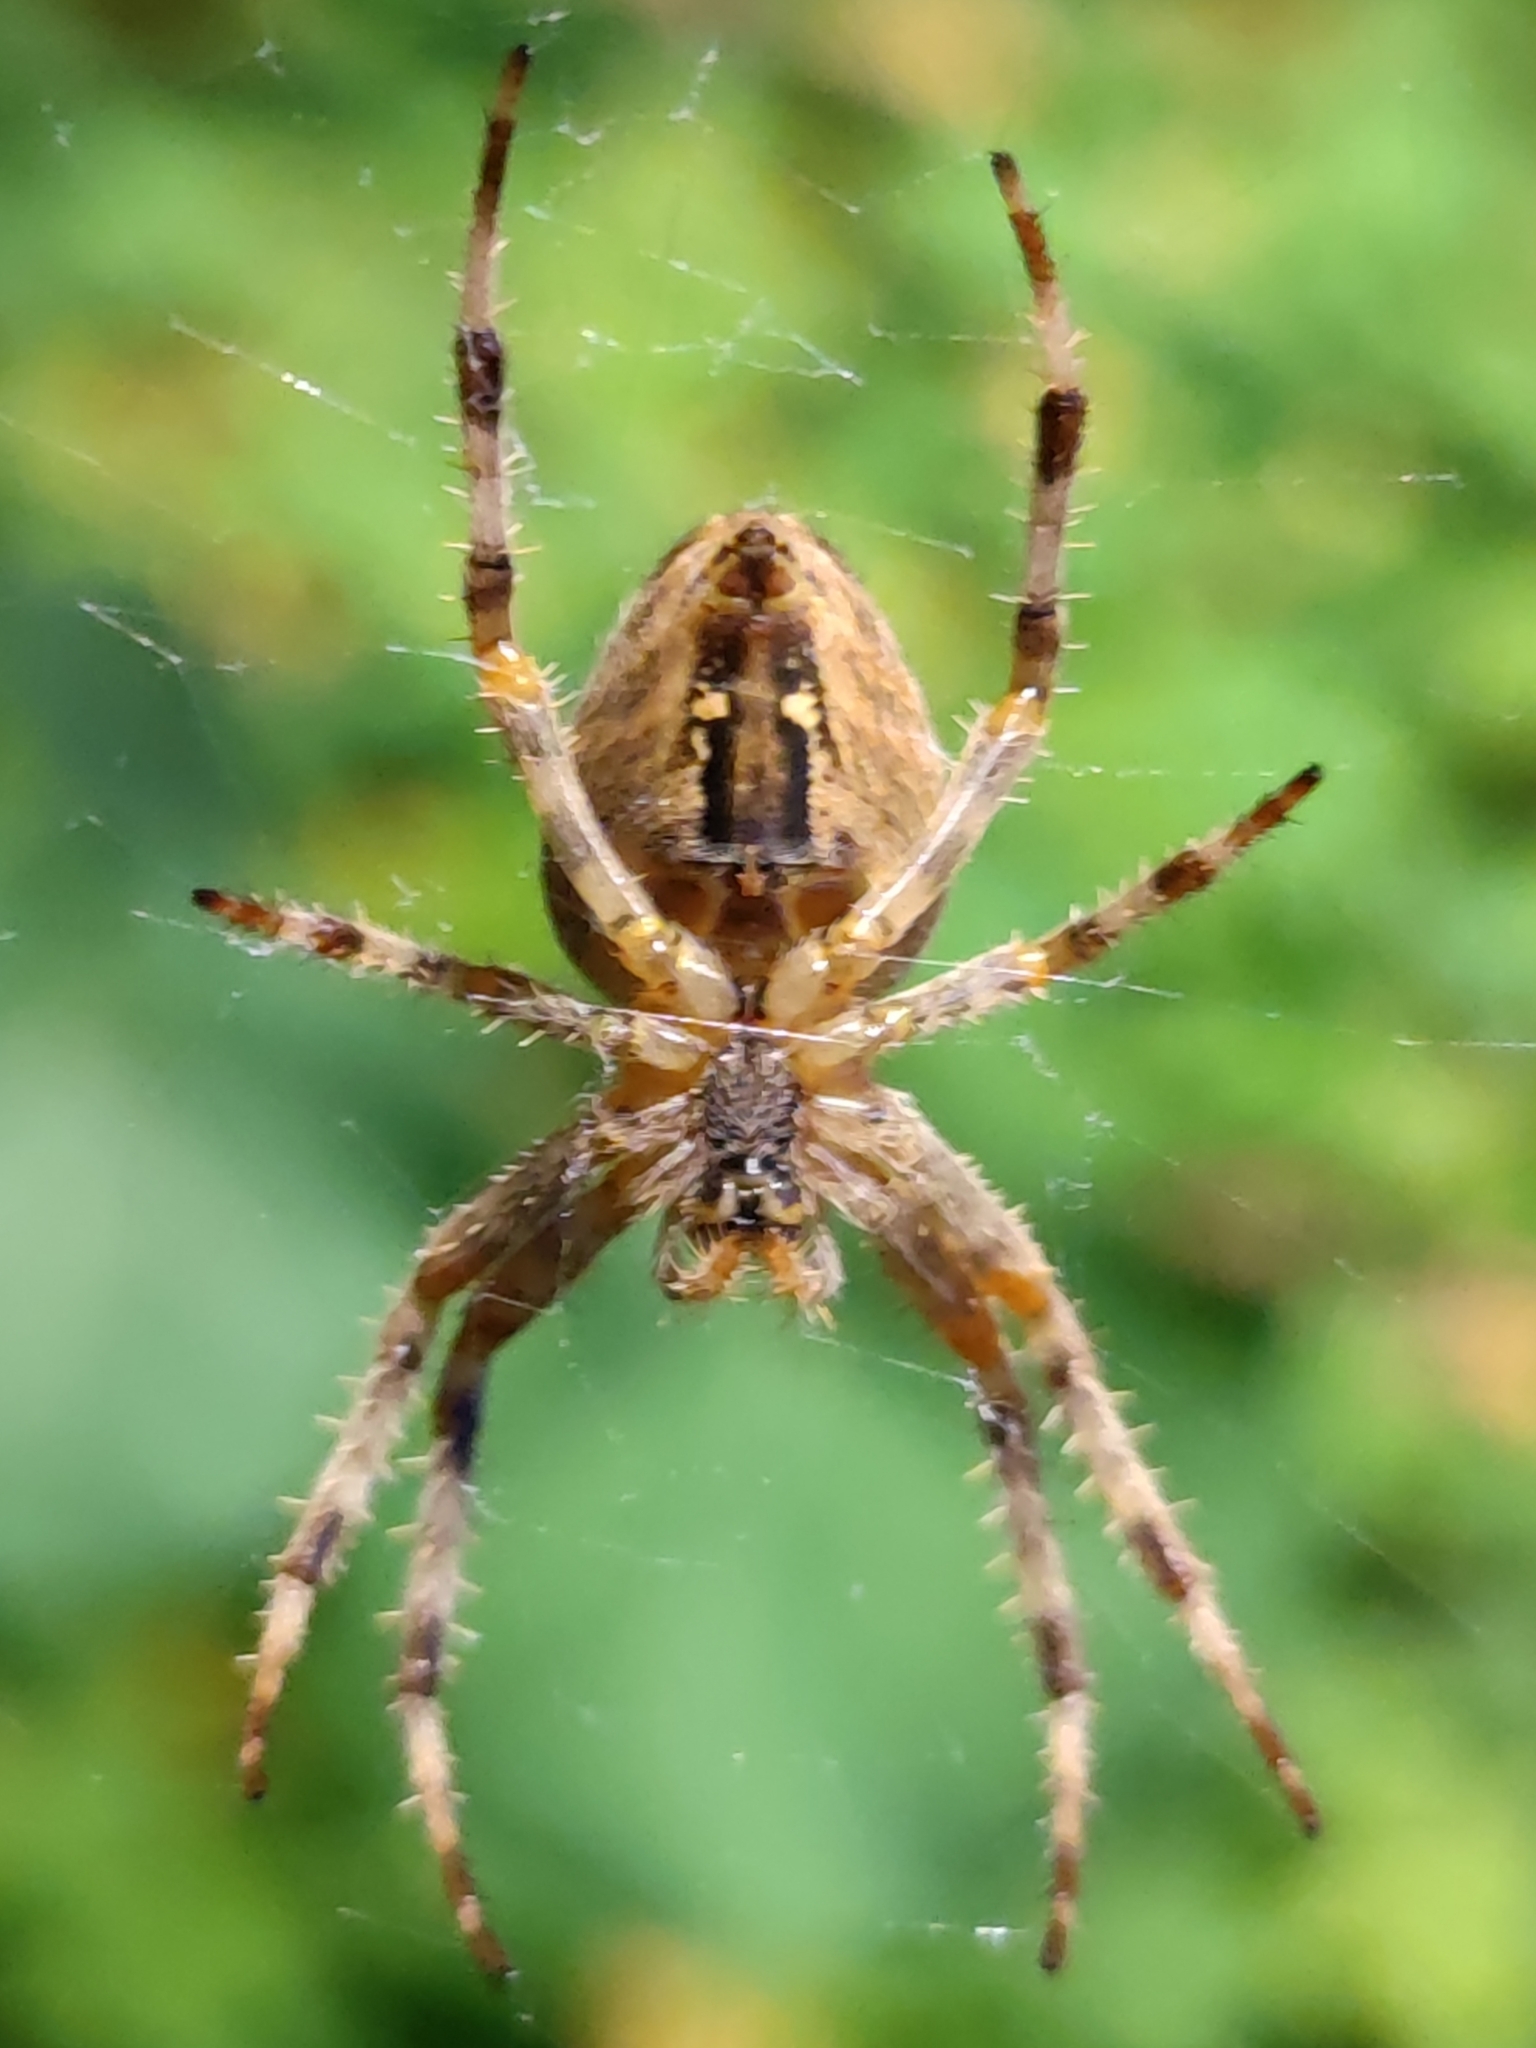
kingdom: Animalia
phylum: Arthropoda
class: Arachnida
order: Araneae
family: Araneidae
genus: Araneus
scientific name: Araneus diadematus
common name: Cross orbweaver
